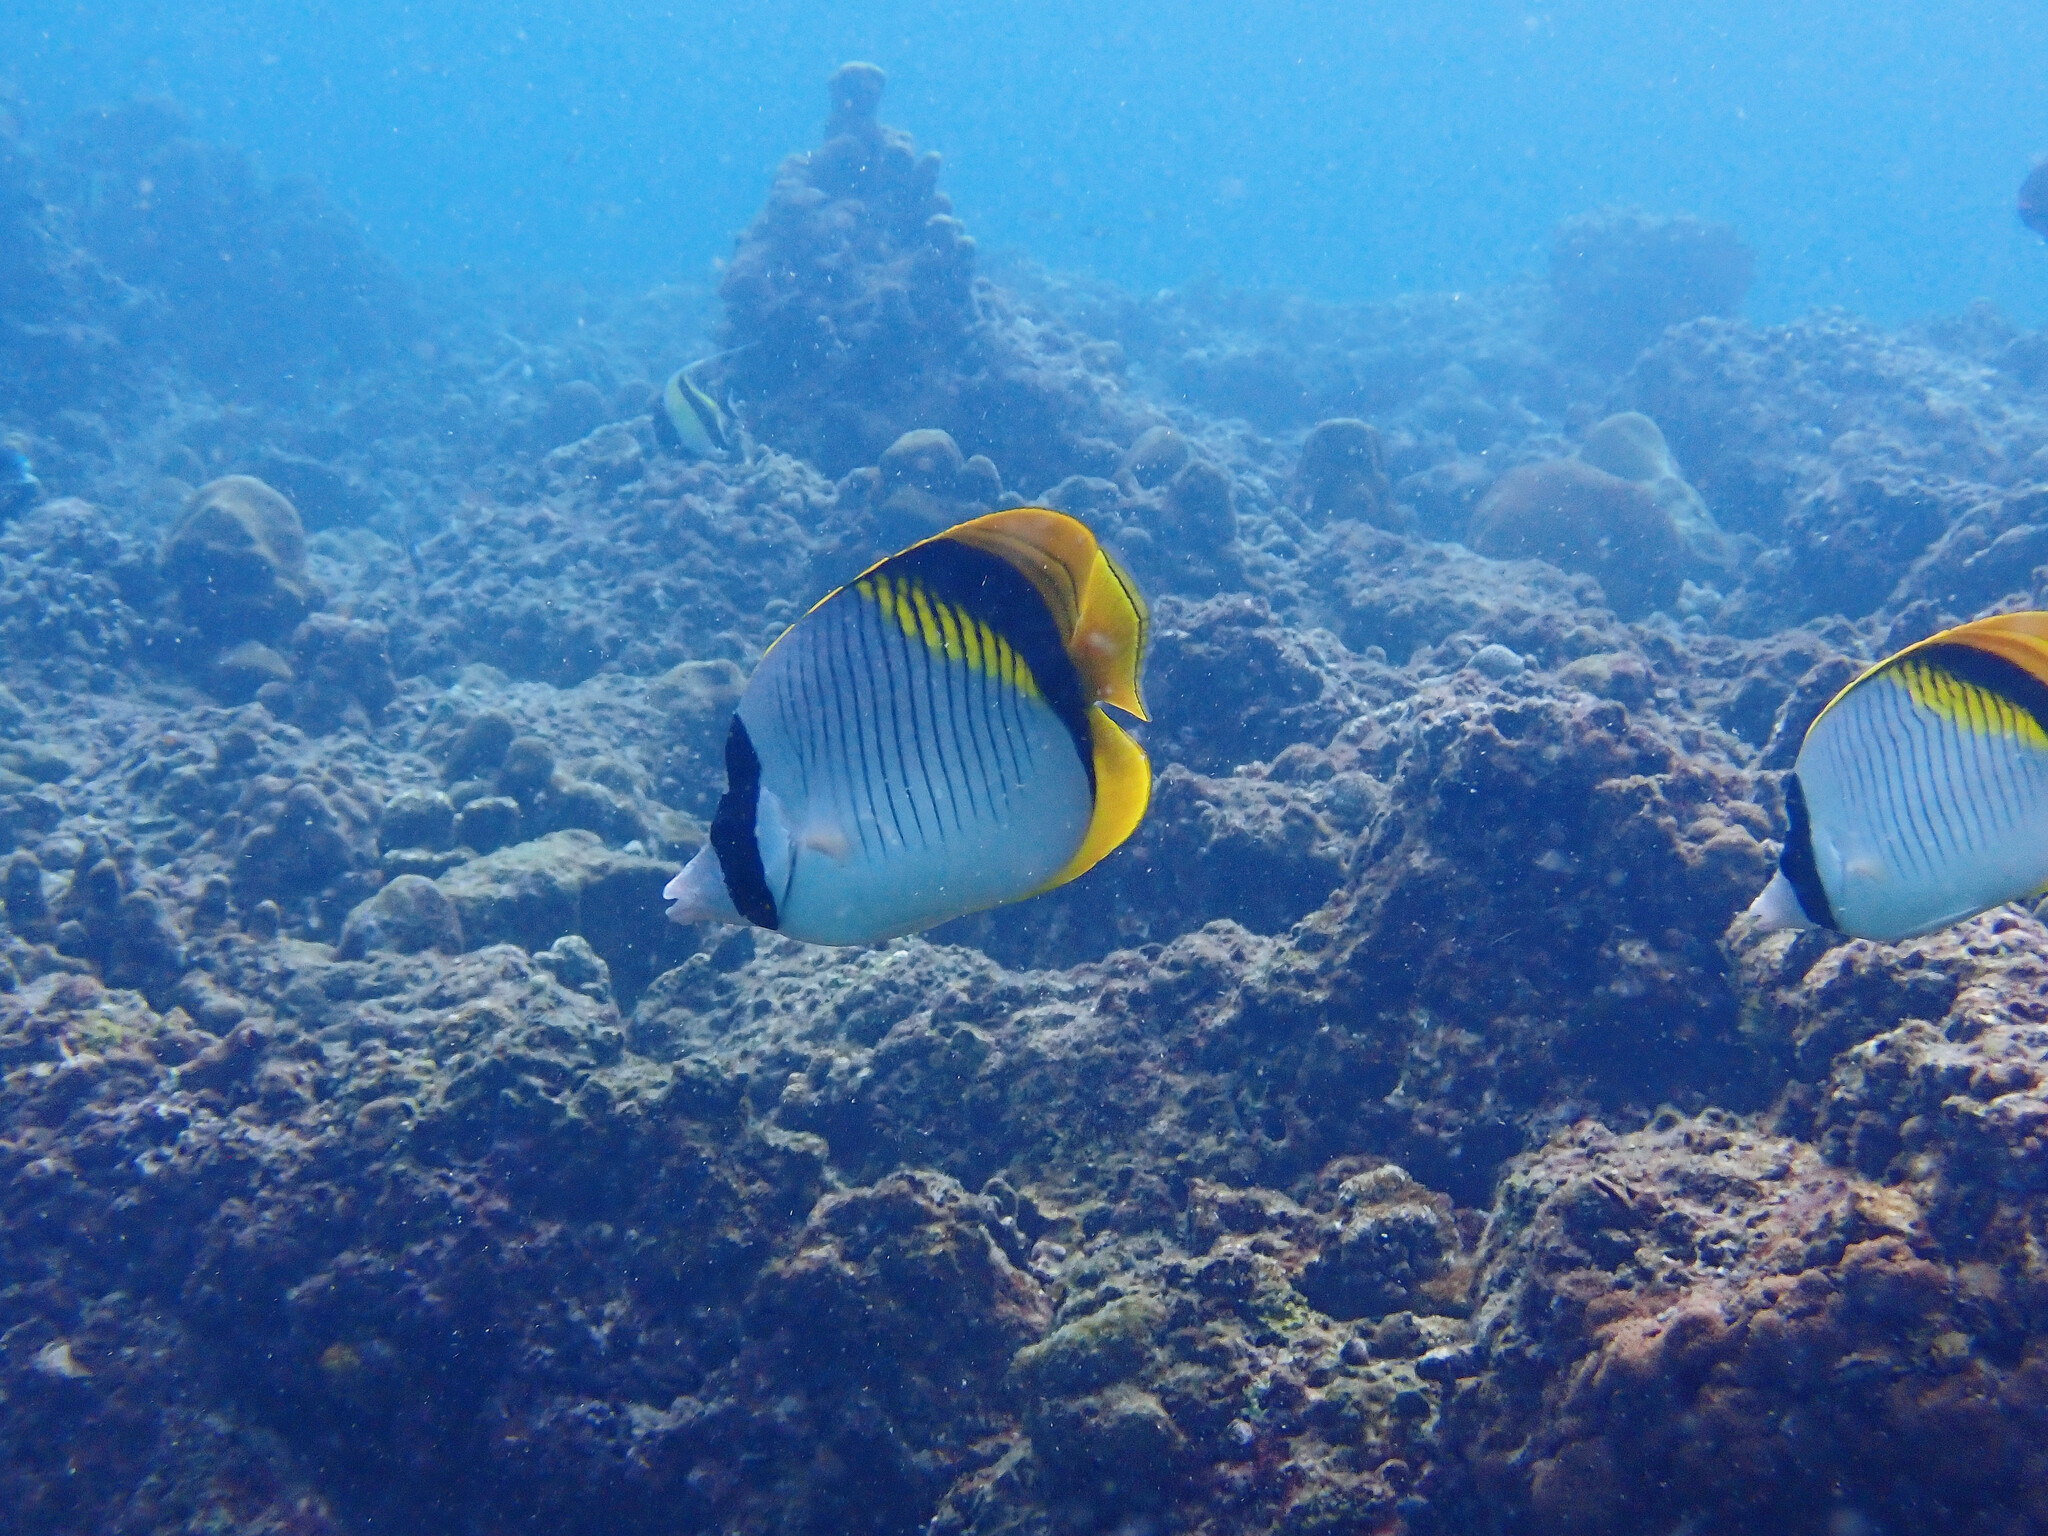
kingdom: Animalia
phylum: Chordata
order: Perciformes
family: Chaetodontidae
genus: Chaetodon
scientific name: Chaetodon lineolatus
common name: Lined butterflyfish
